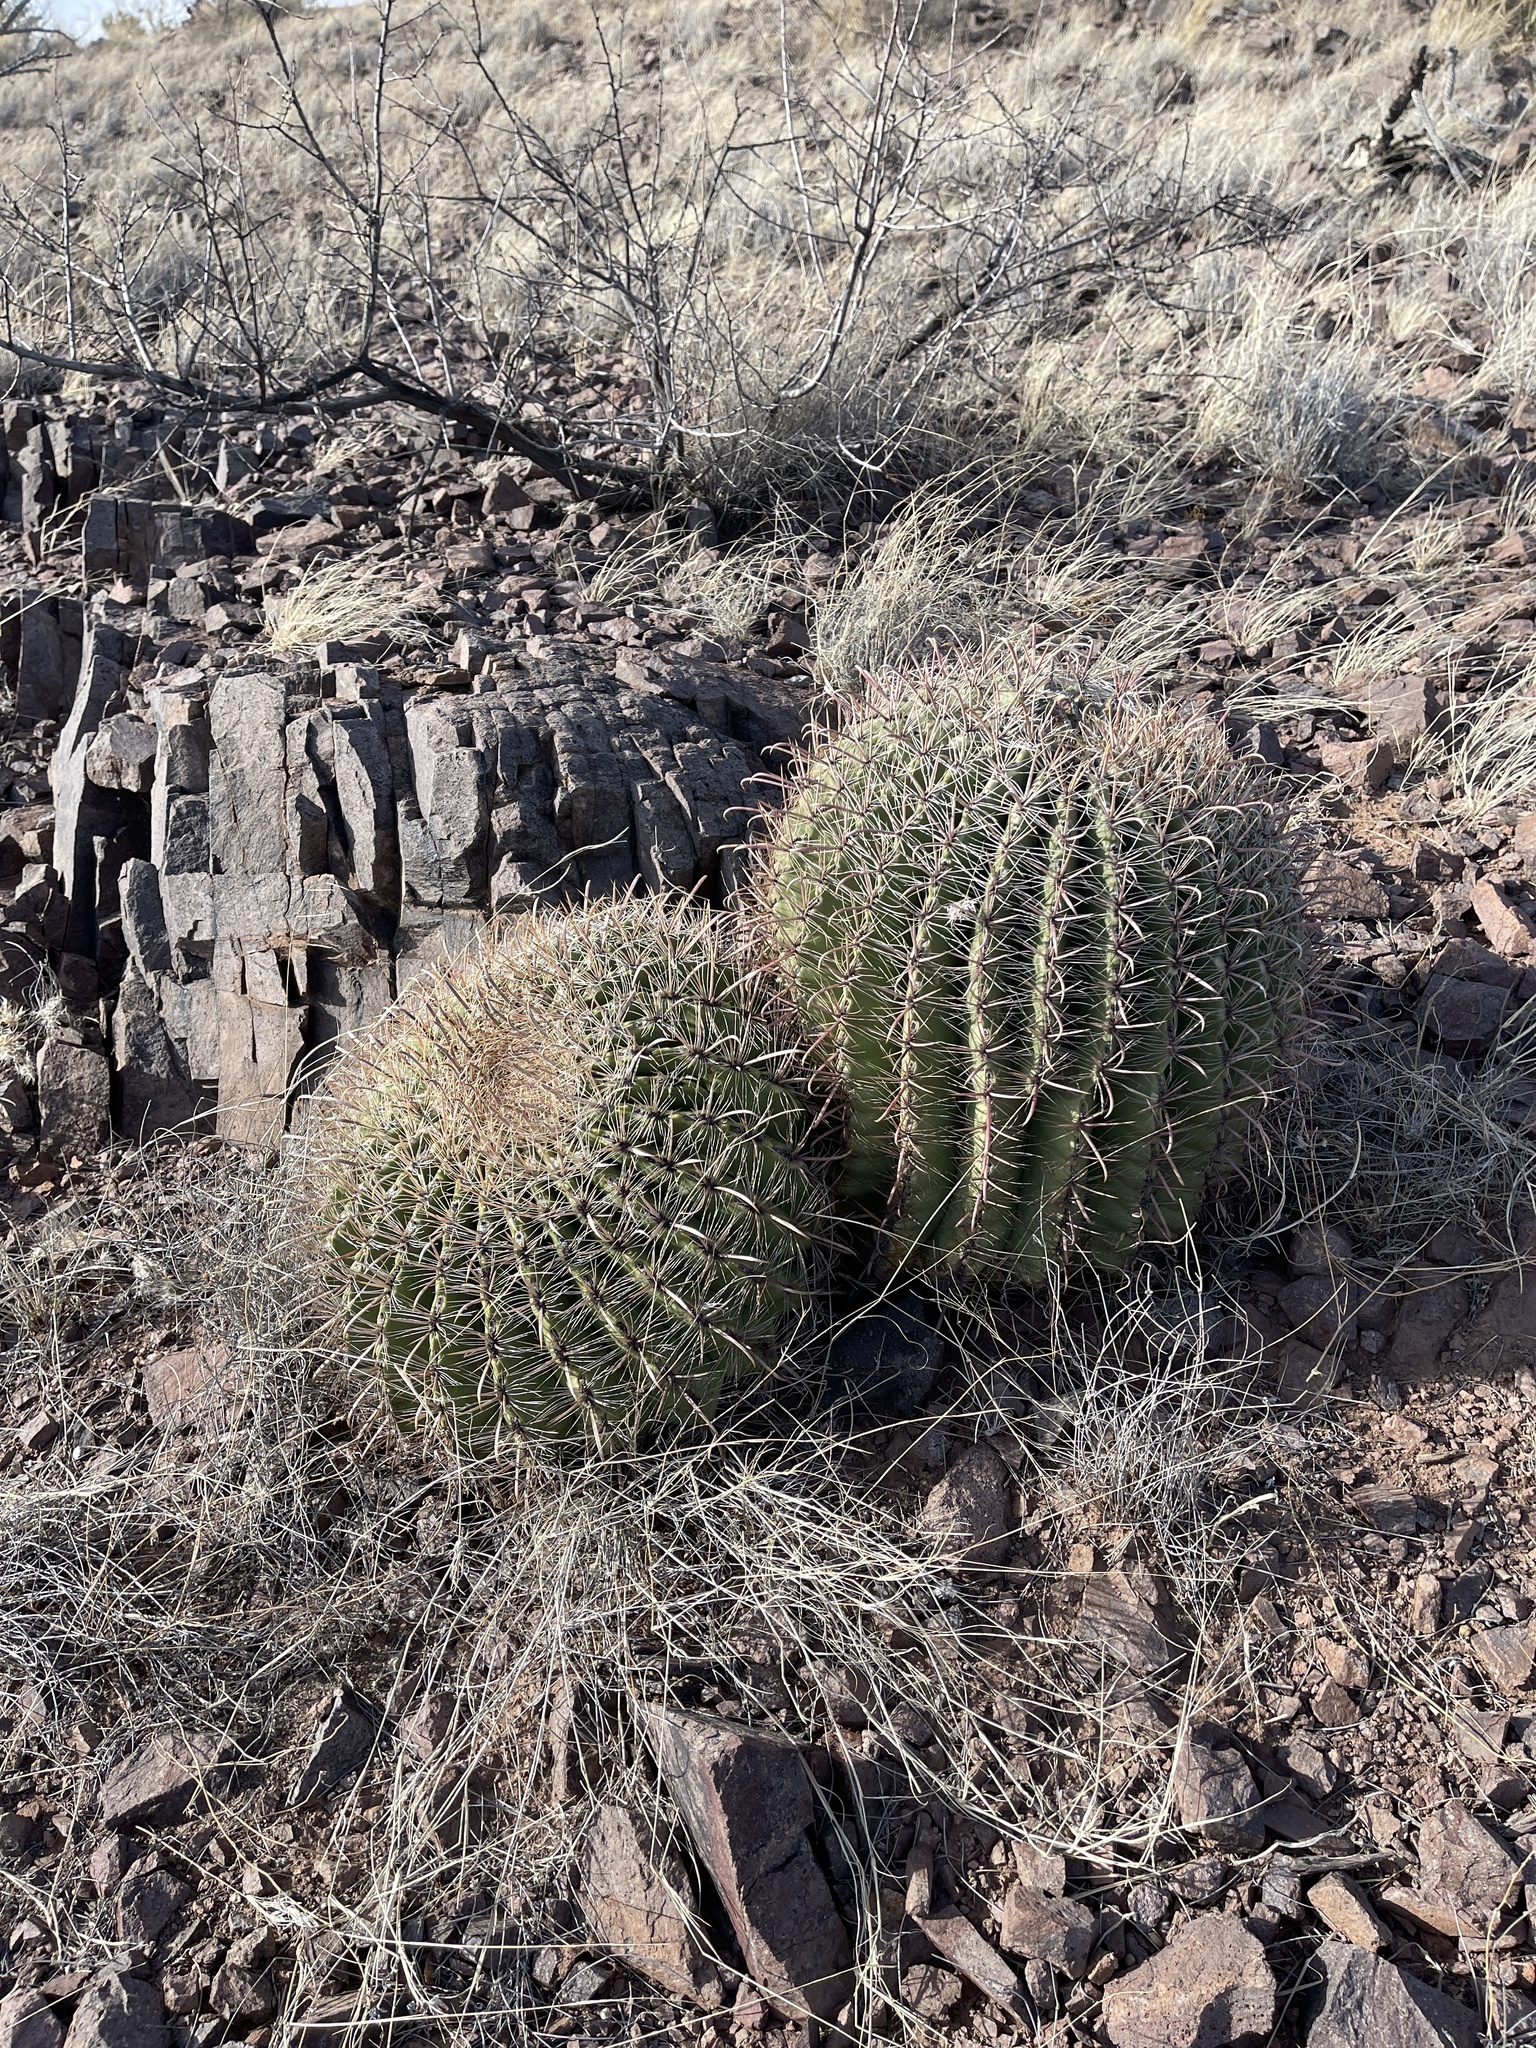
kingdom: Plantae
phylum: Tracheophyta
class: Magnoliopsida
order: Caryophyllales
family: Cactaceae
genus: Ferocactus
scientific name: Ferocactus wislizeni
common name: Candy barrel cactus
